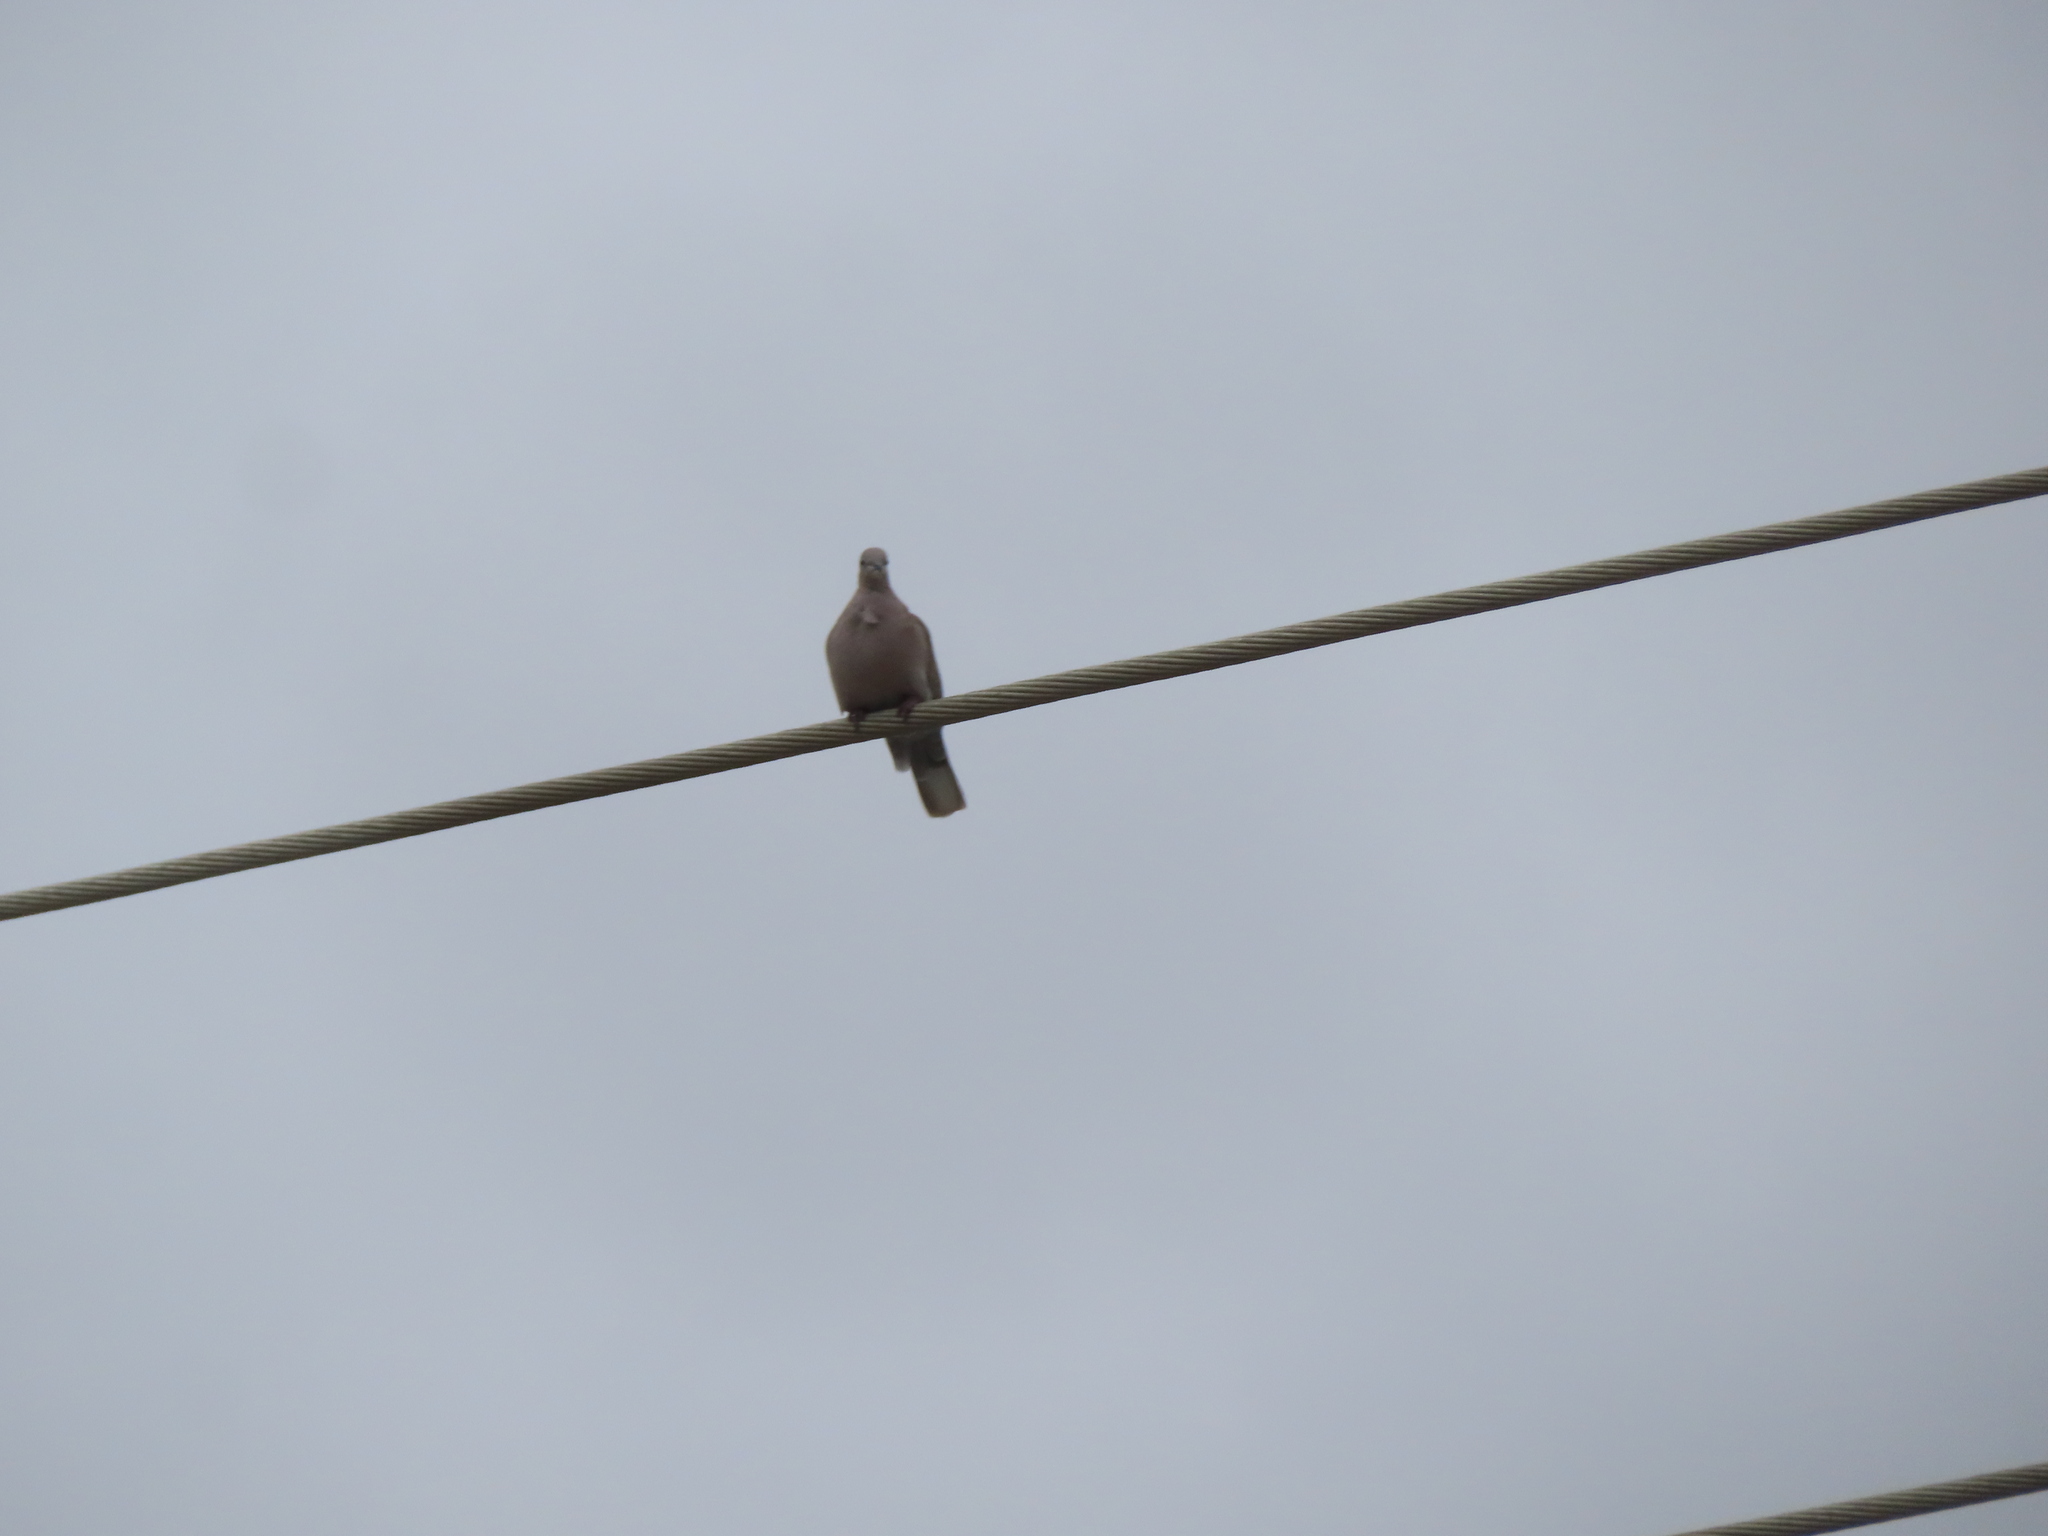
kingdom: Animalia
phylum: Chordata
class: Aves
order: Columbiformes
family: Columbidae
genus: Streptopelia
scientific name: Streptopelia decaocto
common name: Eurasian collared dove
